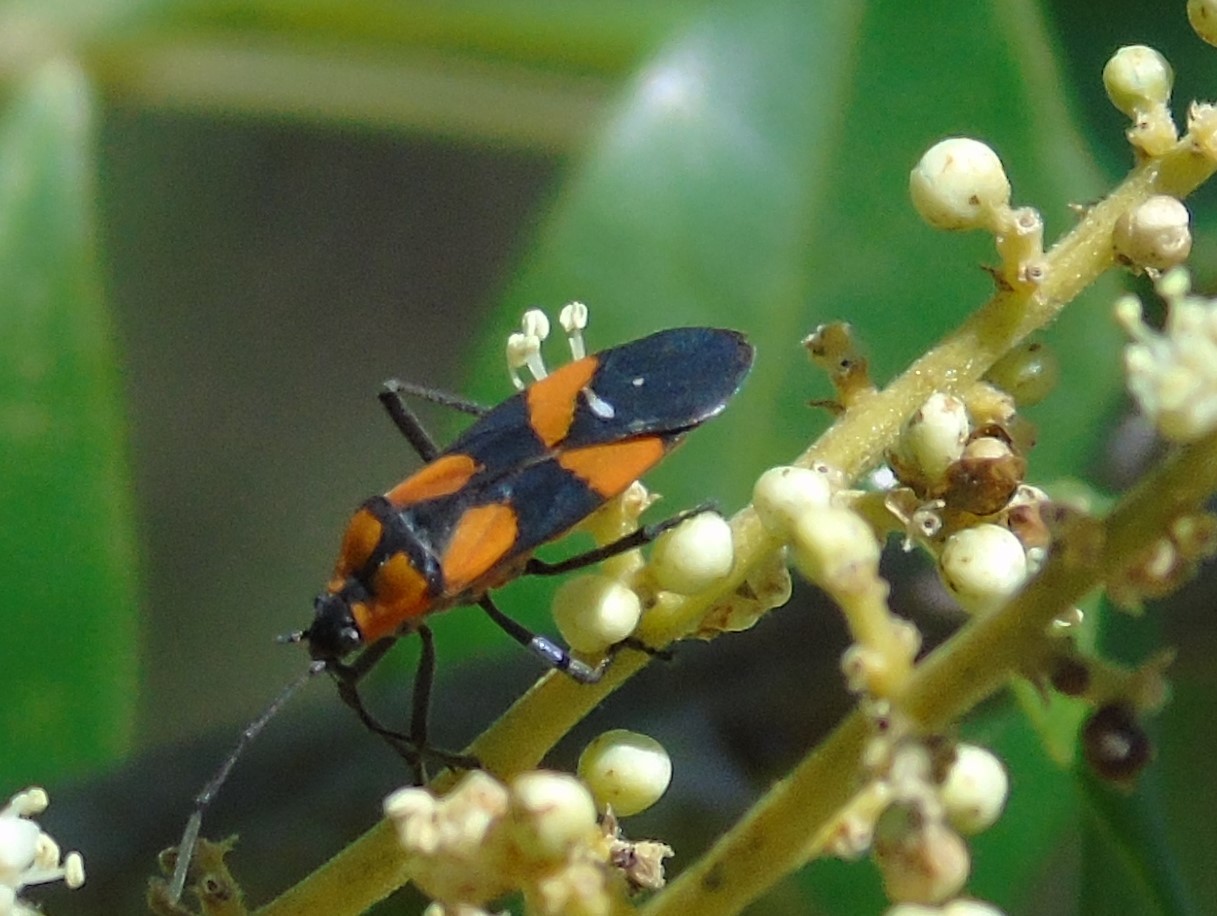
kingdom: Animalia
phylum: Arthropoda
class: Insecta
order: Hemiptera
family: Lygaeidae
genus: Oncopeltus
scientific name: Oncopeltus sexmaculatus
